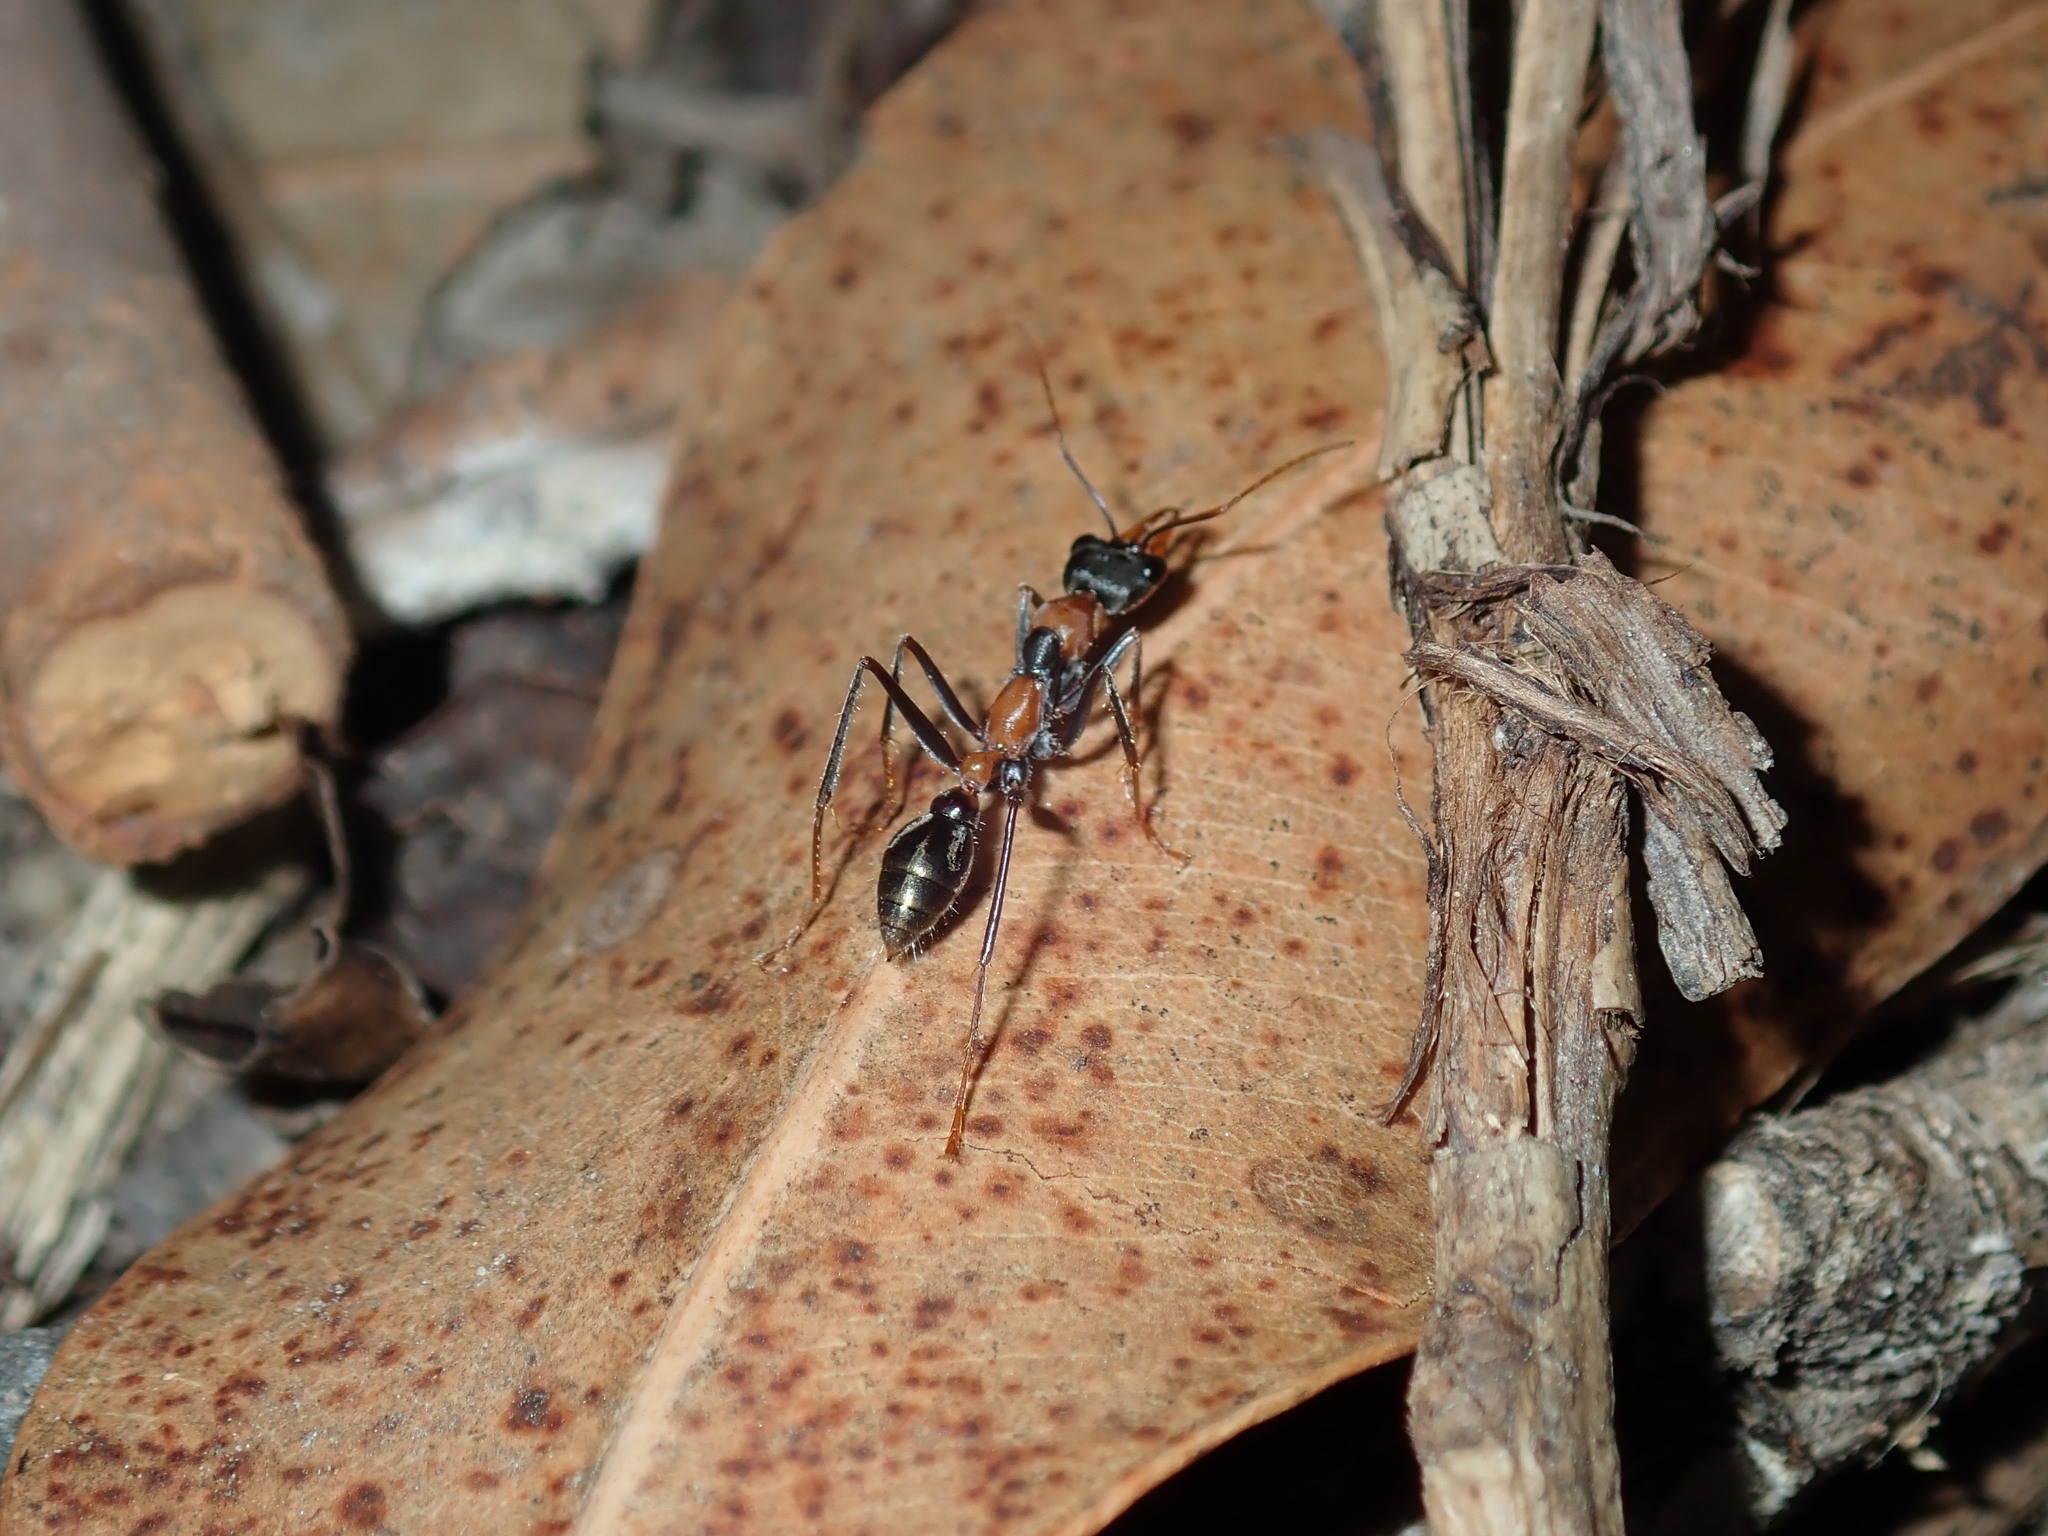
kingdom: Animalia
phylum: Arthropoda
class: Insecta
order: Hymenoptera
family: Formicidae
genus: Myrmecia
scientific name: Myrmecia nigrocincta
